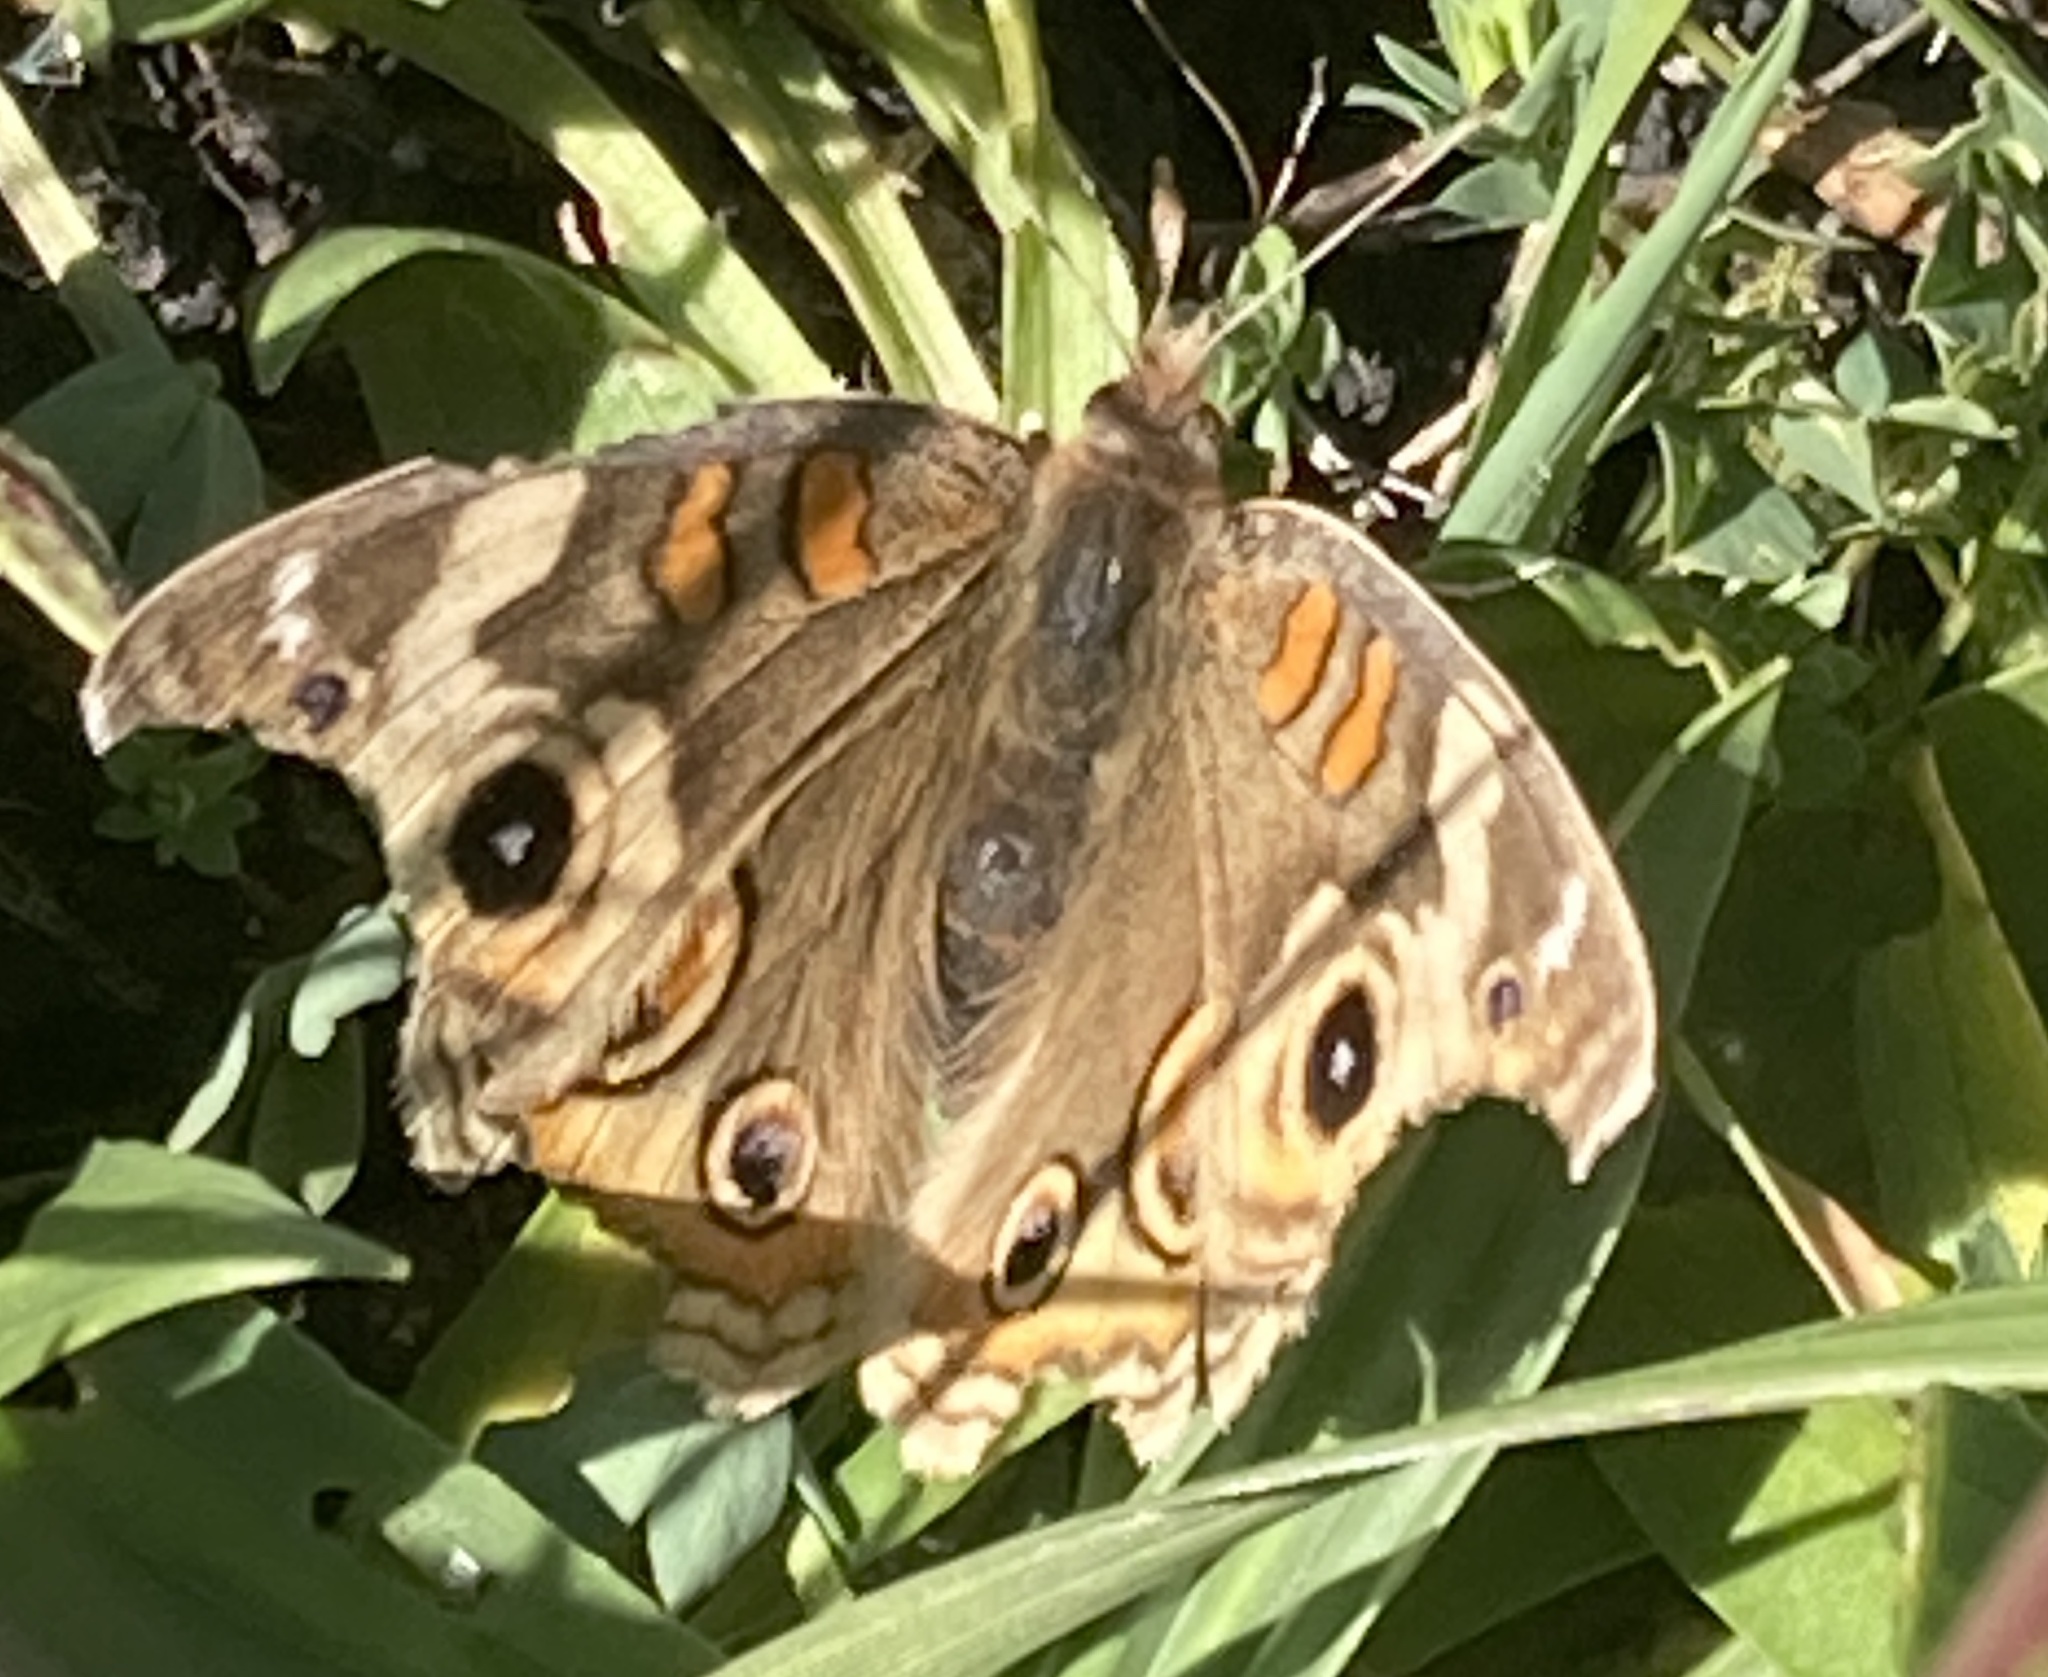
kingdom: Animalia
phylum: Arthropoda
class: Insecta
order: Lepidoptera
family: Nymphalidae
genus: Junonia
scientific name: Junonia grisea
